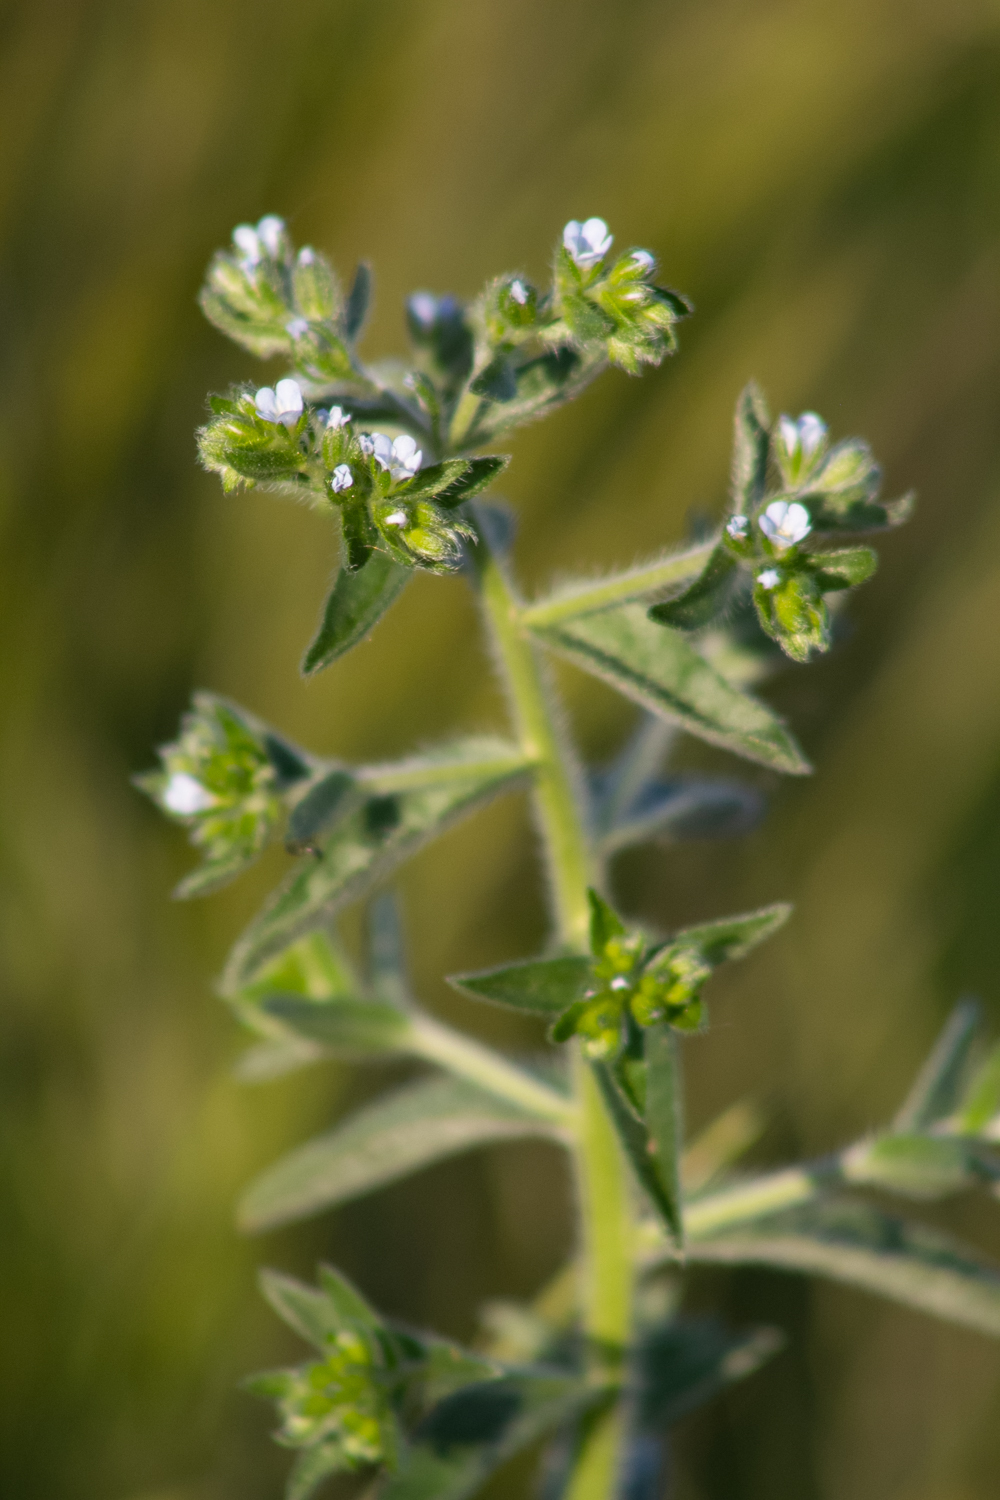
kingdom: Plantae
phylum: Tracheophyta
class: Magnoliopsida
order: Boraginales
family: Boraginaceae
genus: Lappula
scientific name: Lappula squarrosa
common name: European stickseed
